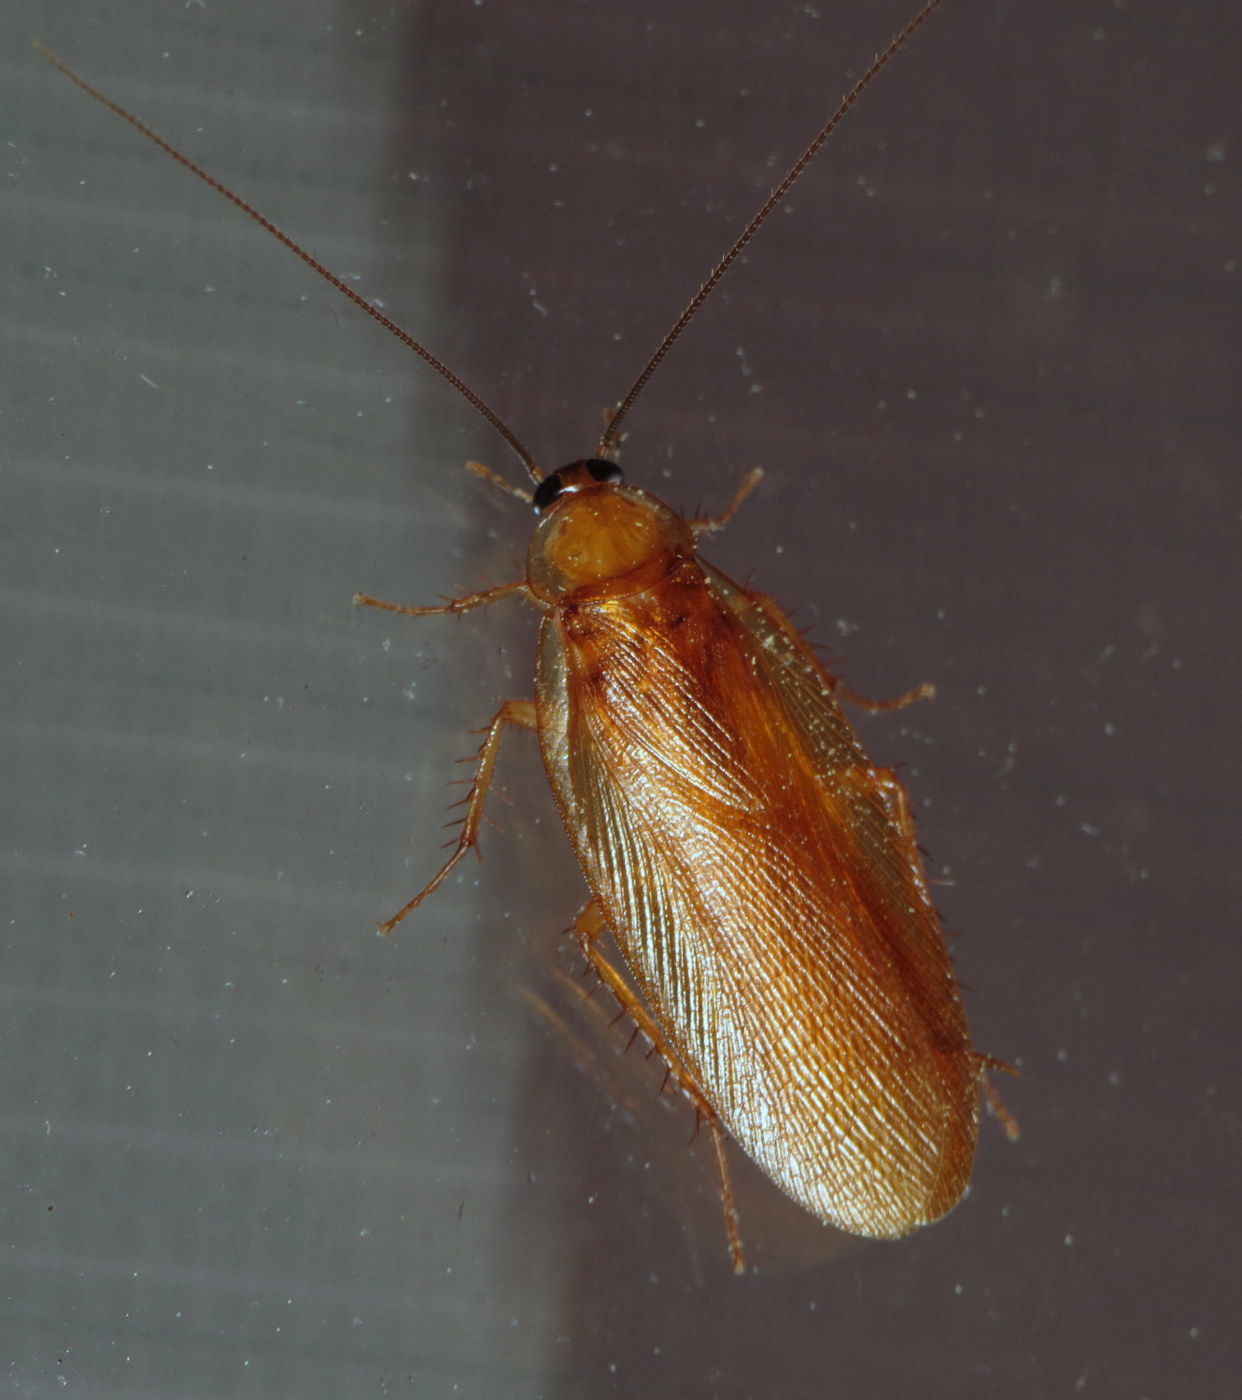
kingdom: Animalia
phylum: Arthropoda
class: Insecta
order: Blattodea
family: Ectobiidae
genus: Parcoblatta
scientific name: Parcoblatta virginica
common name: Virginia wood cockroach
